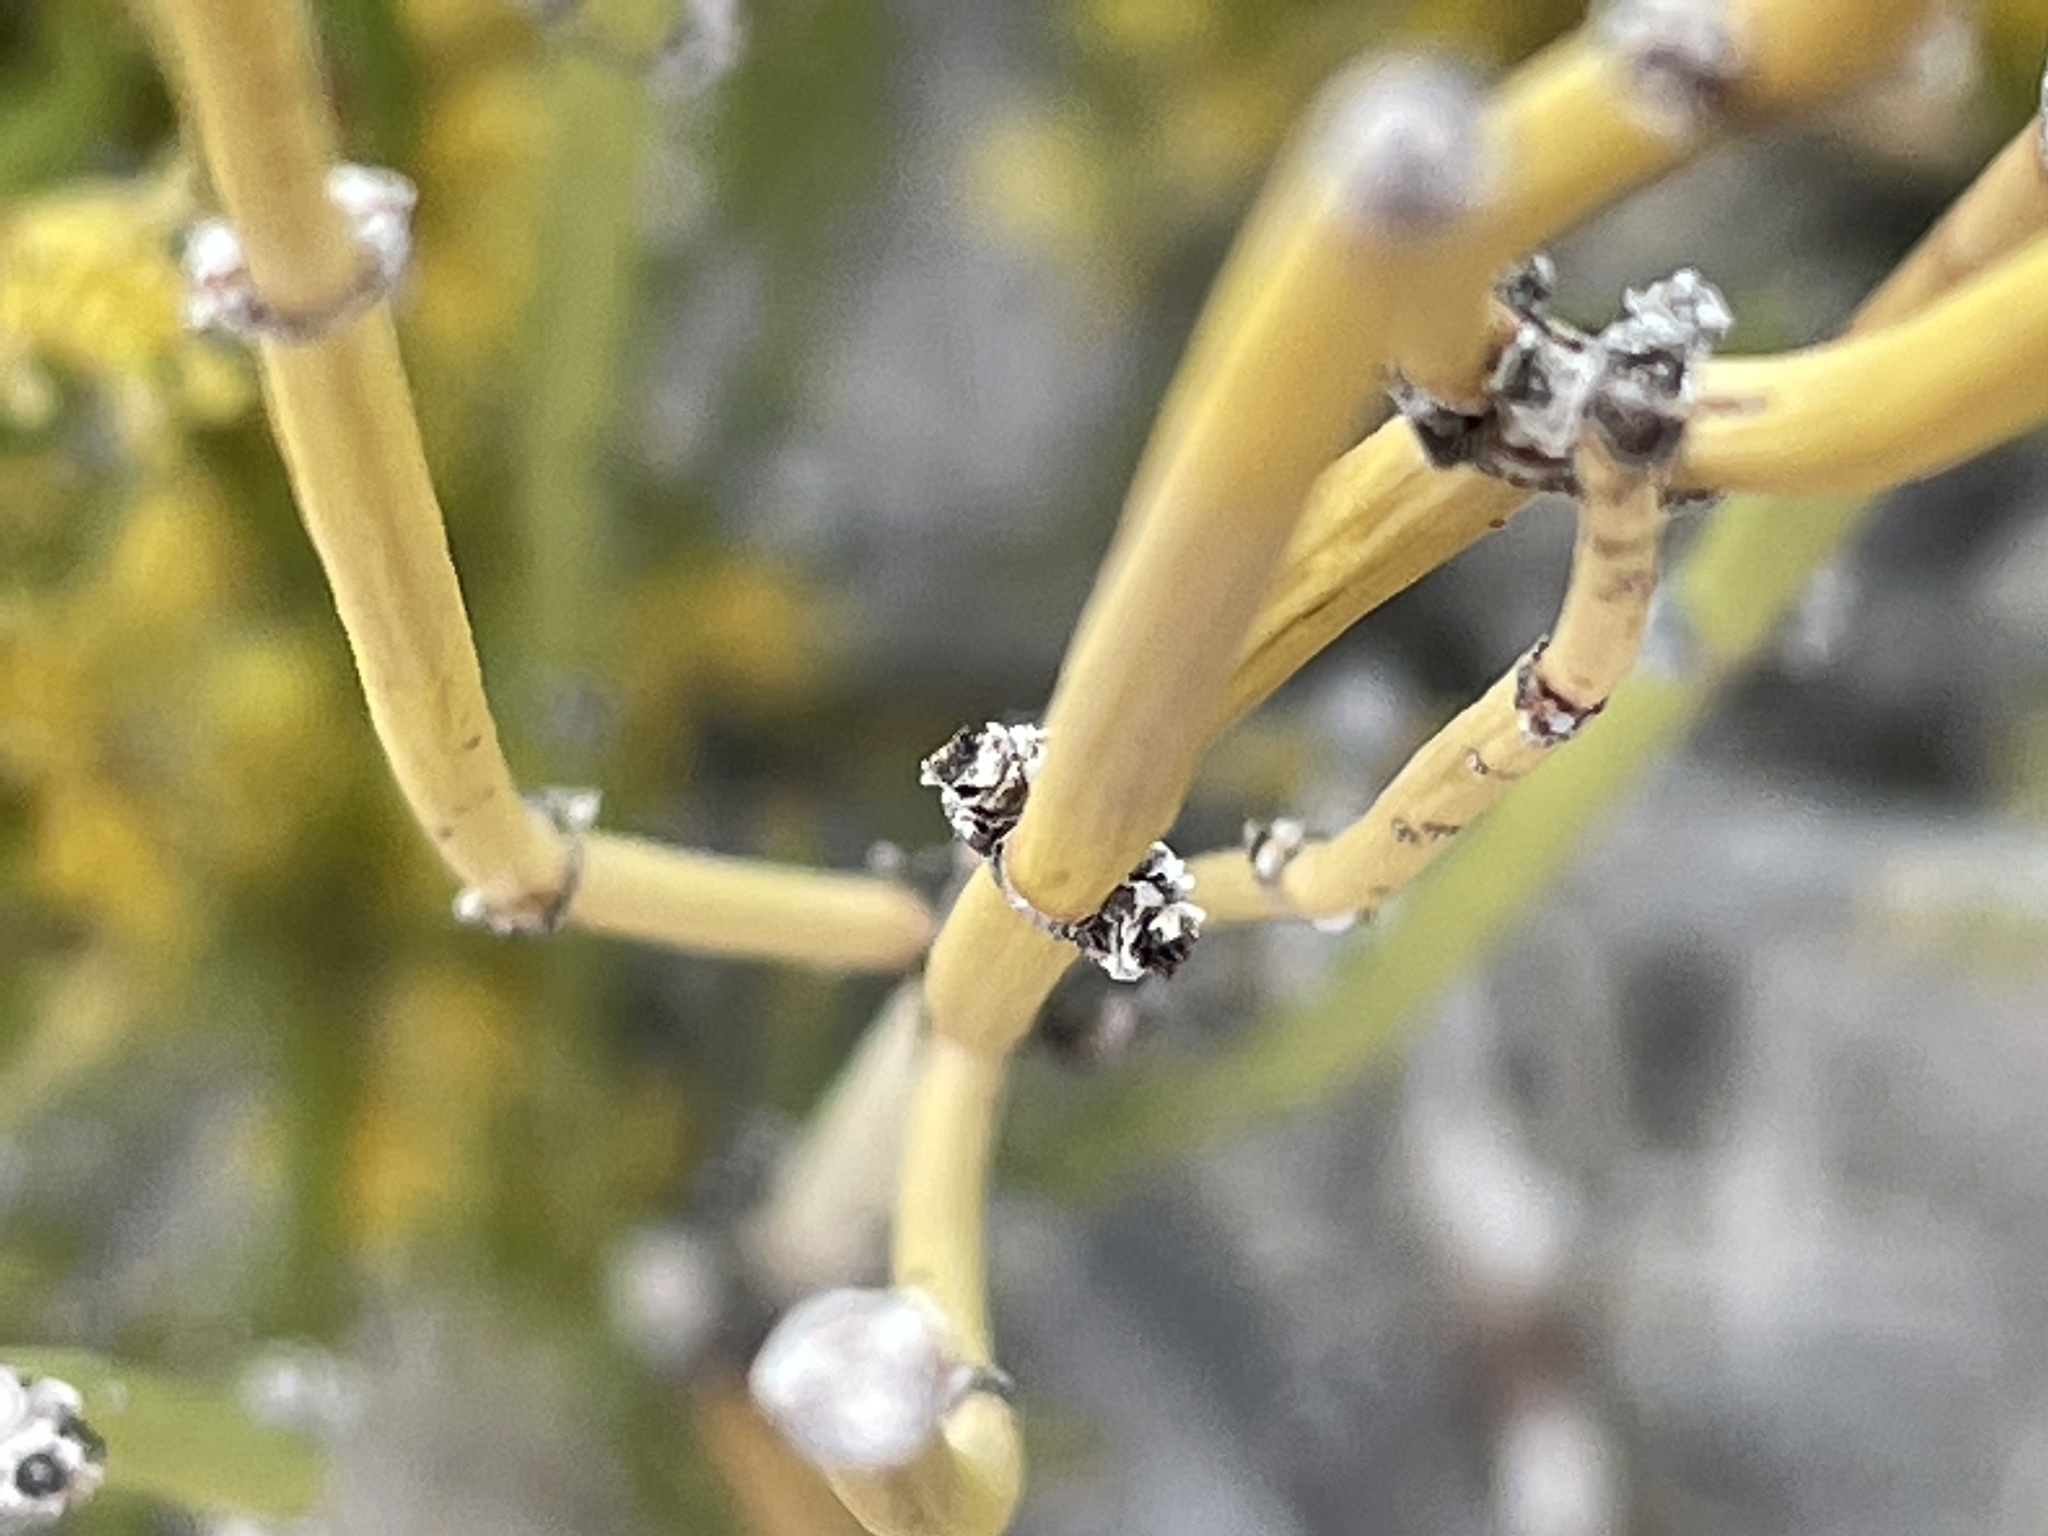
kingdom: Plantae
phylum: Tracheophyta
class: Gnetopsida
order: Ephedrales
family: Ephedraceae
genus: Ephedra
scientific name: Ephedra viridis
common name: Green ephedra
